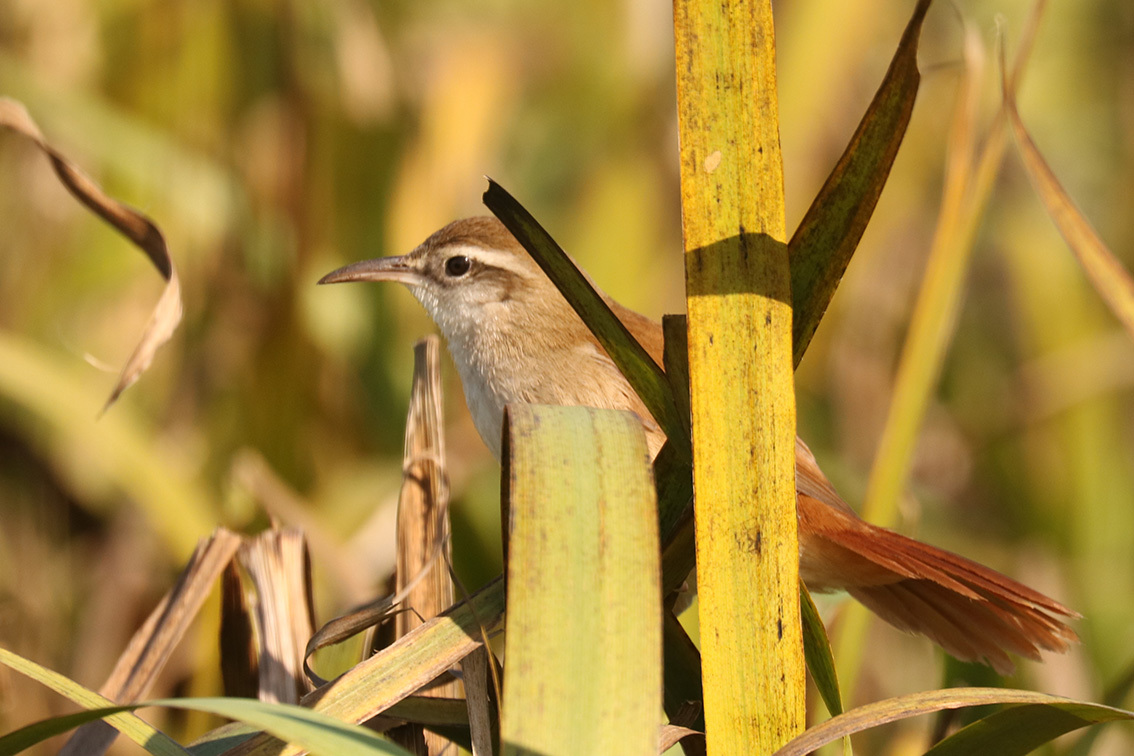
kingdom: Animalia
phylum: Chordata
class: Aves
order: Passeriformes
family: Furnariidae
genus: Limnornis
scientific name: Limnornis curvirostris
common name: Curve-billed reedhaunter
